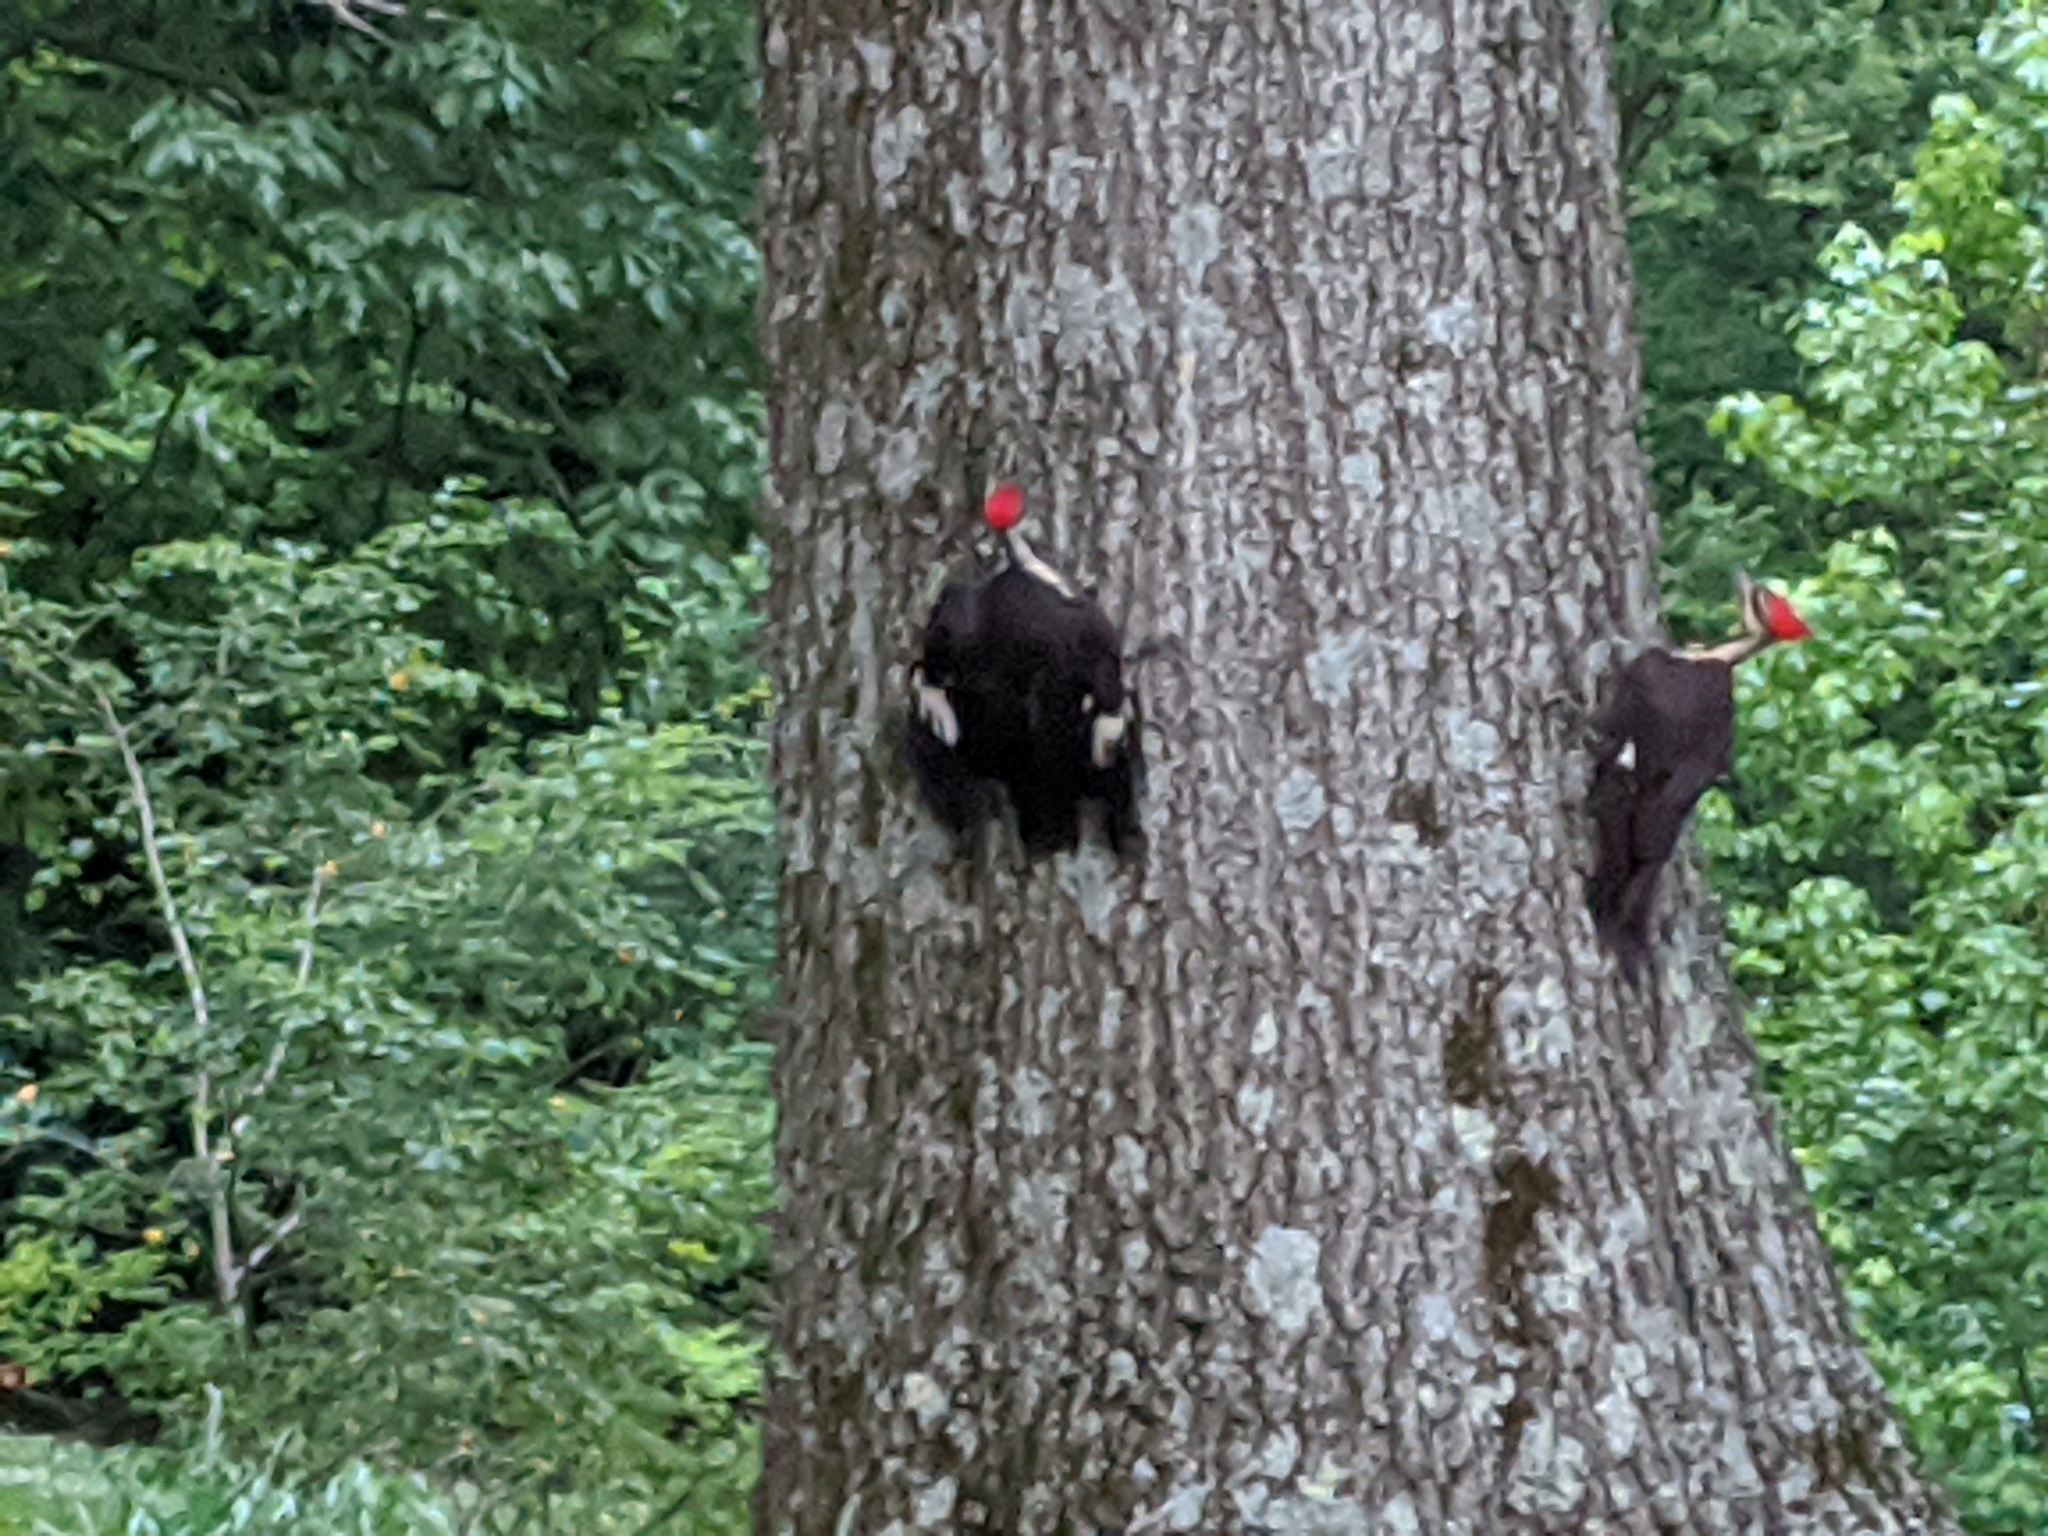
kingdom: Animalia
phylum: Chordata
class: Aves
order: Piciformes
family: Picidae
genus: Dryocopus
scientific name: Dryocopus pileatus
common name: Pileated woodpecker
